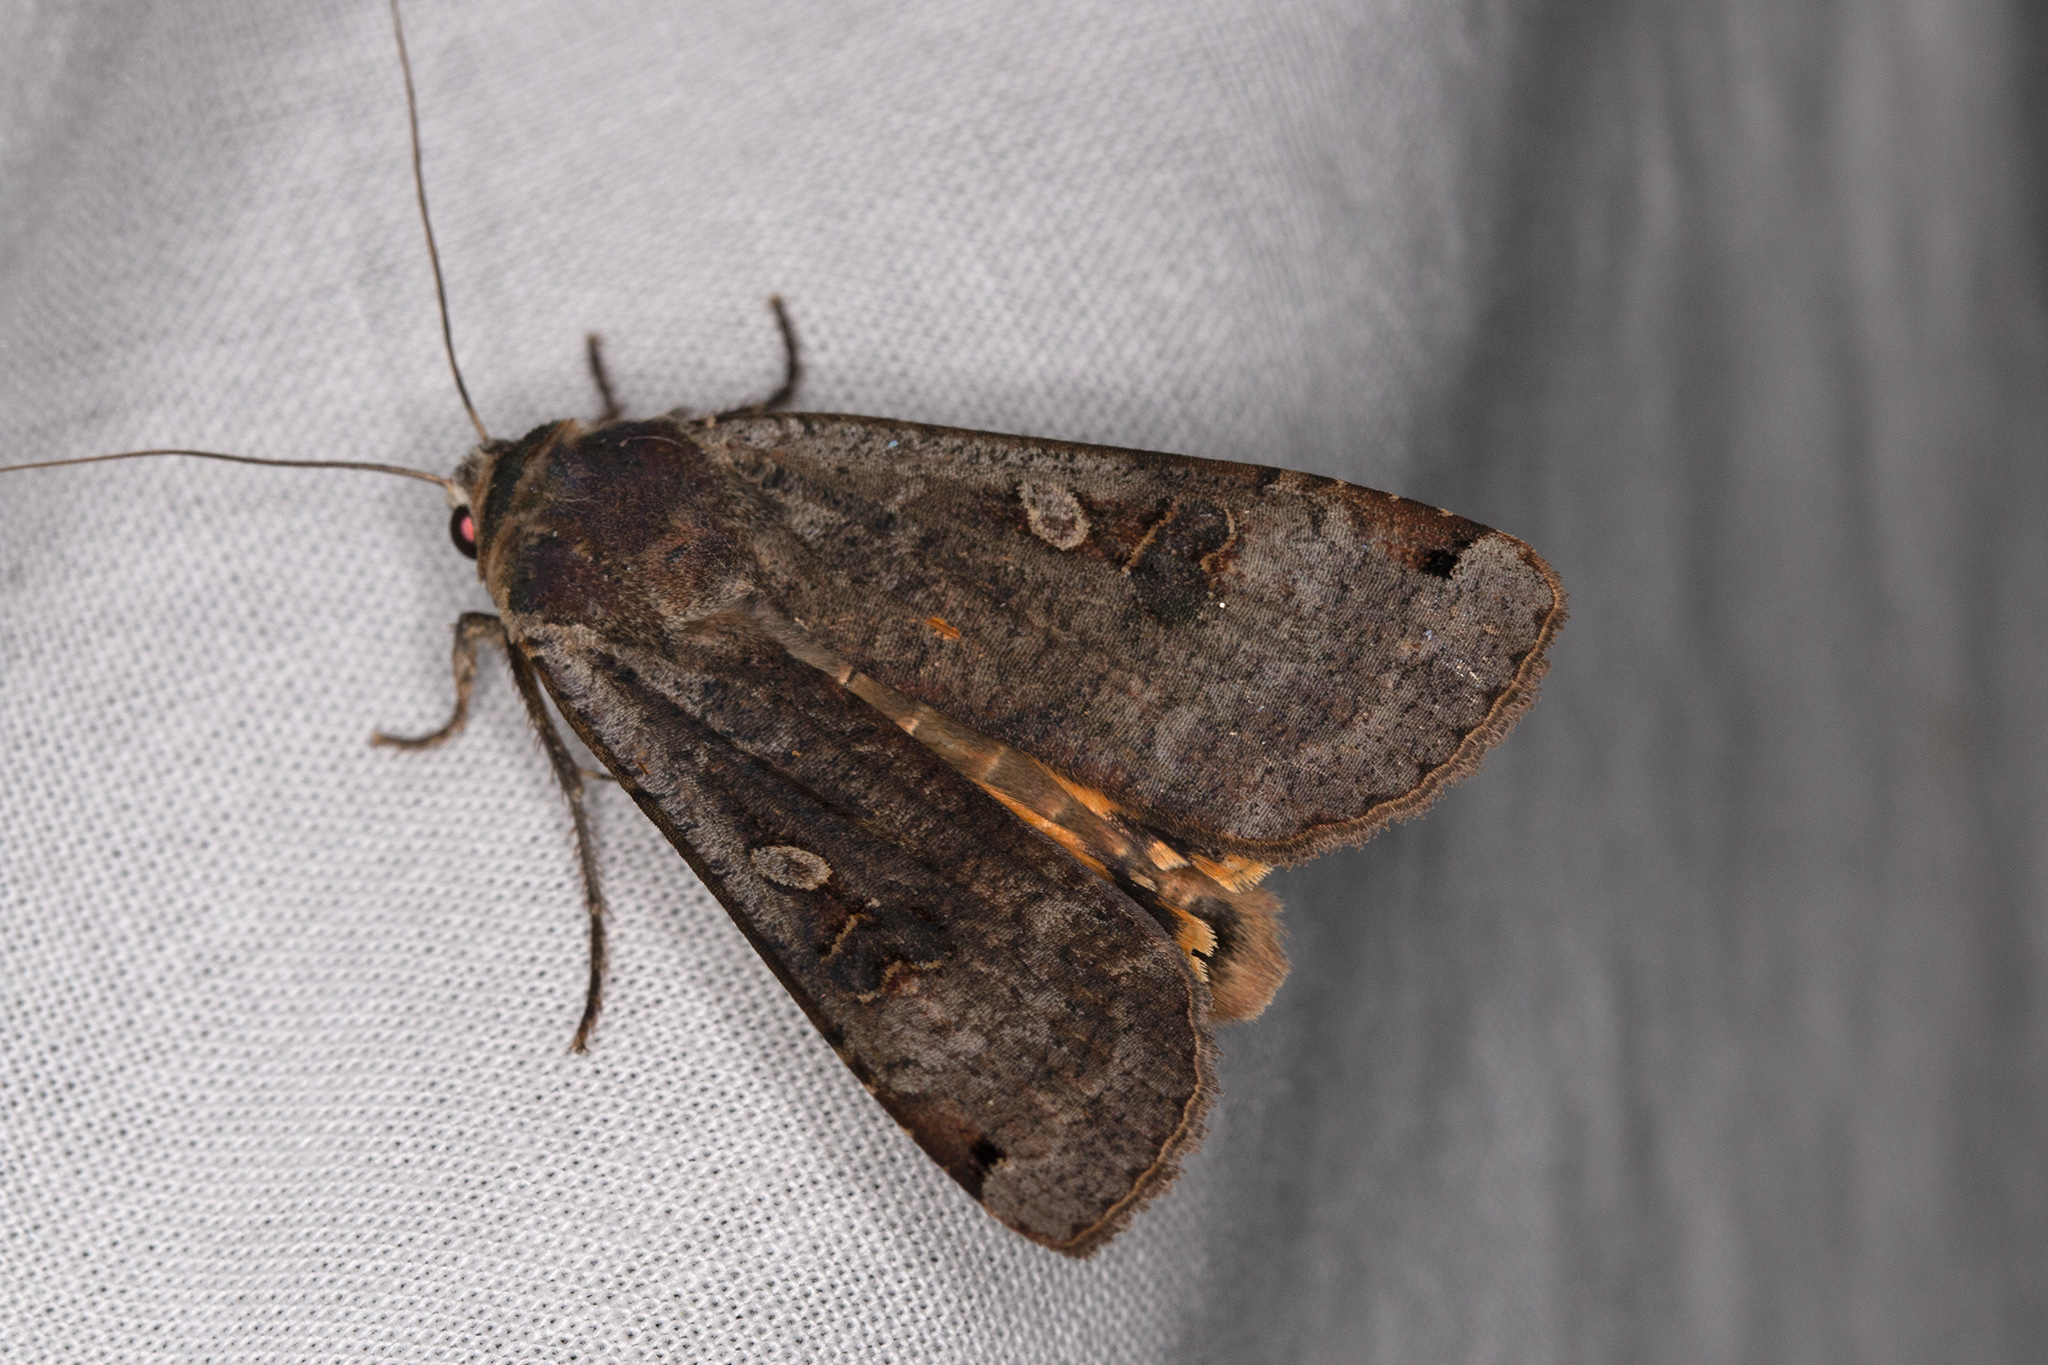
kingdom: Animalia
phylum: Arthropoda
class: Insecta
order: Lepidoptera
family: Noctuidae
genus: Noctua
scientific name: Noctua pronuba
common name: Large yellow underwing
